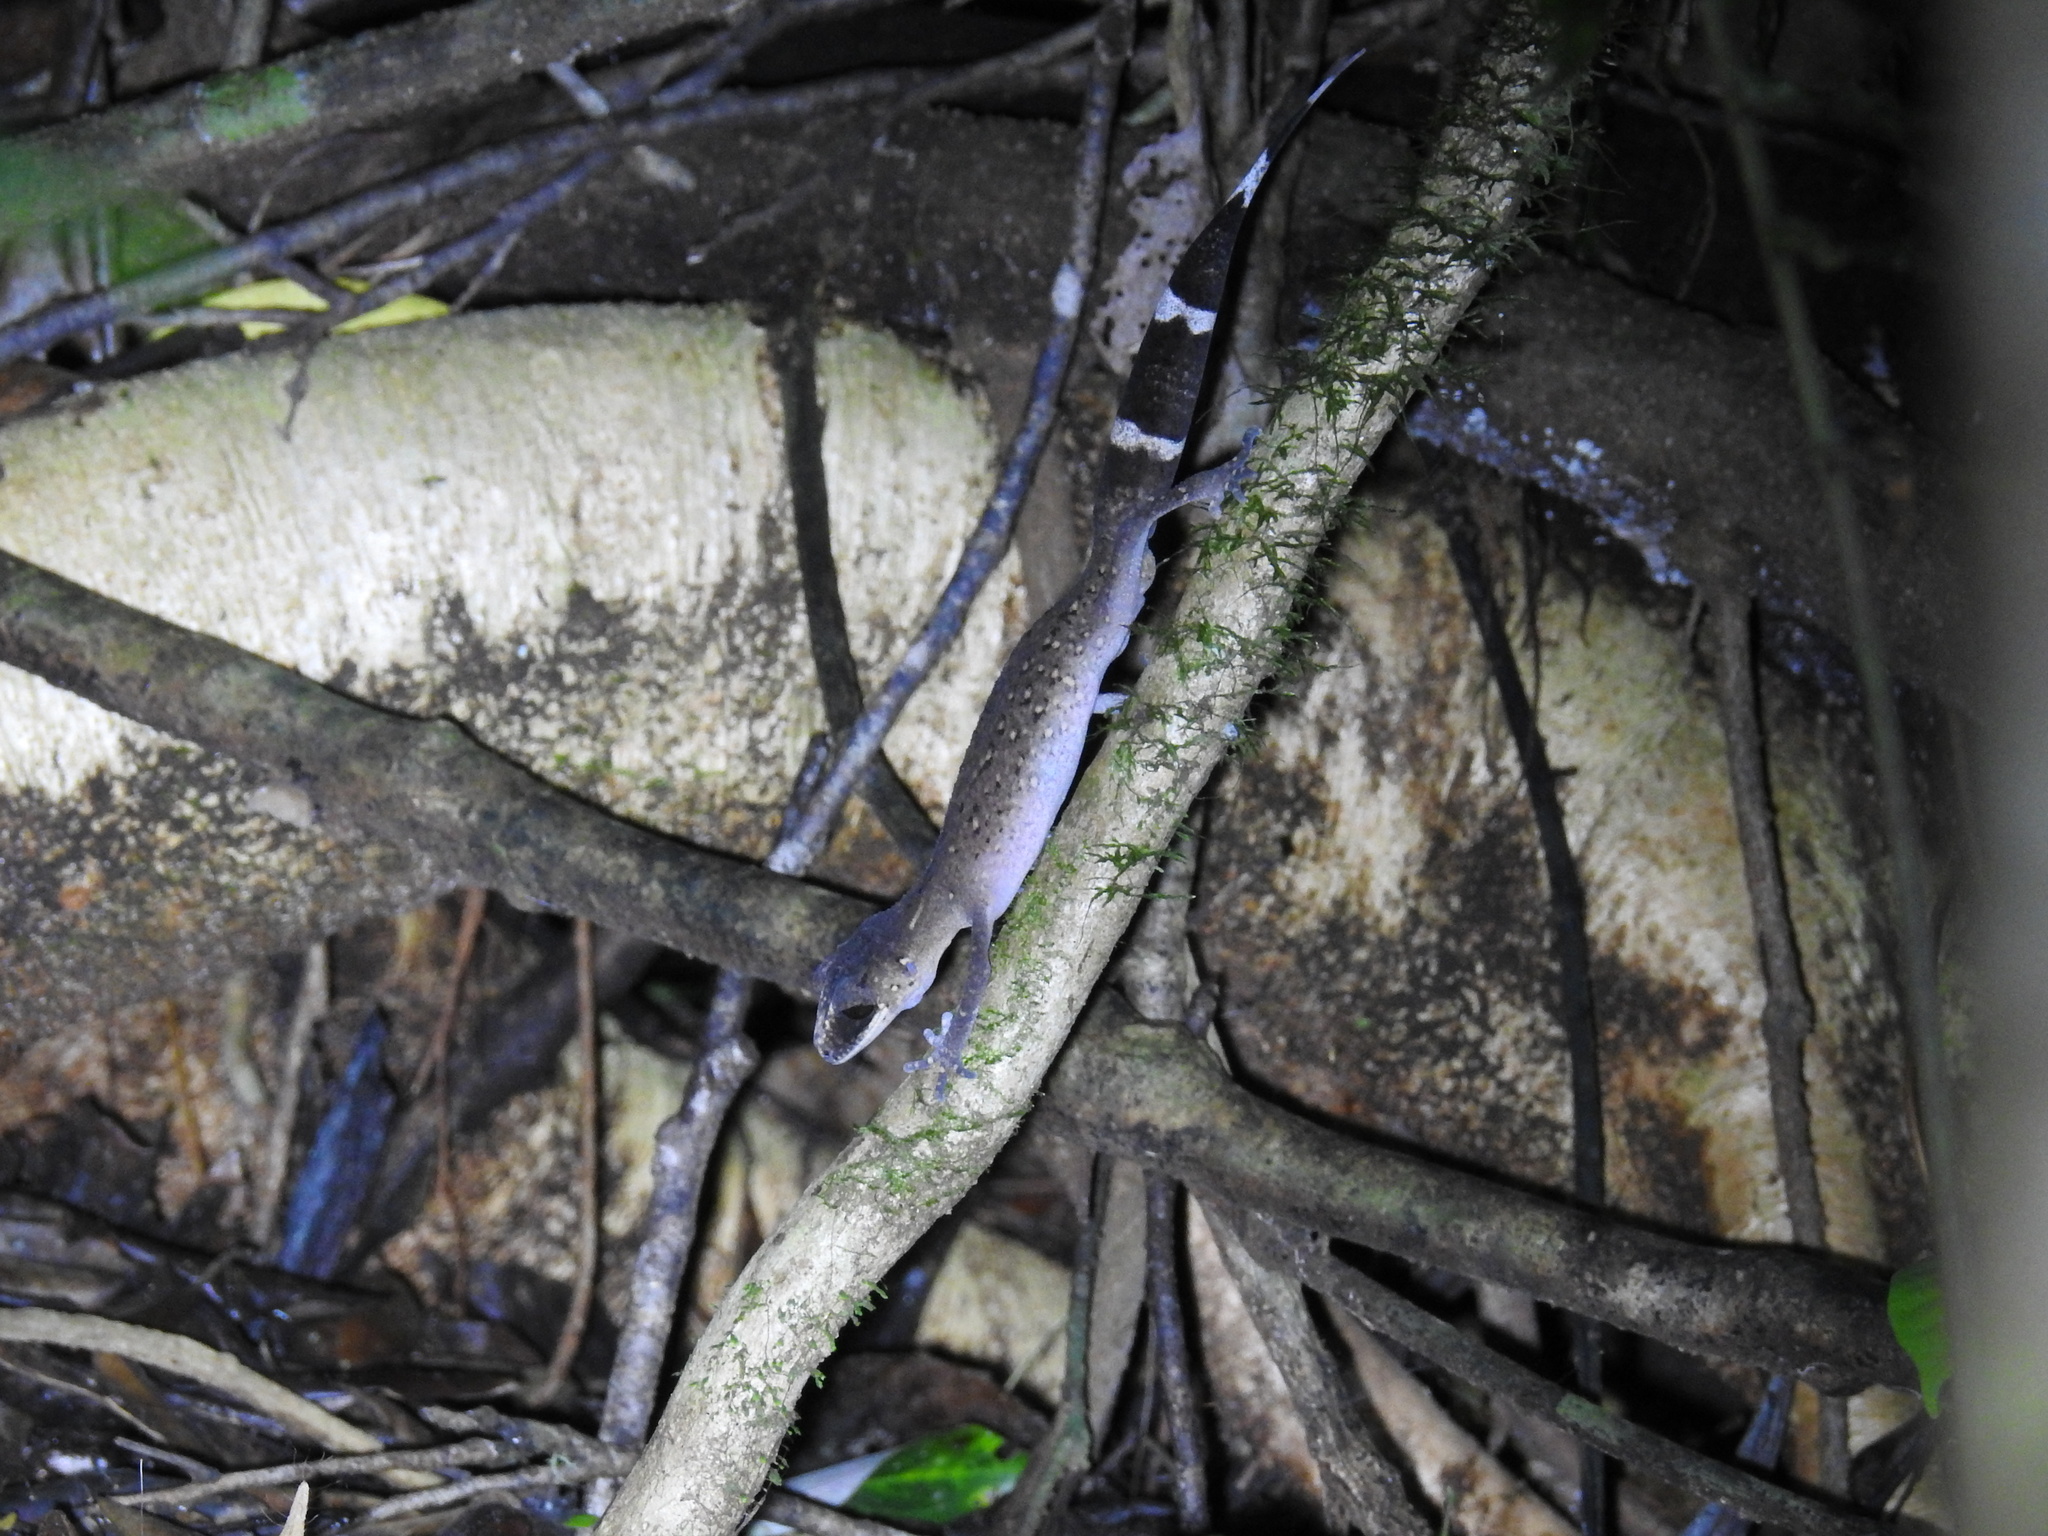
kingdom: Animalia
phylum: Chordata
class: Squamata
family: Carphodactylidae
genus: Carphodactylus
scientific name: Carphodactylus laevis
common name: Chameleon gecko
